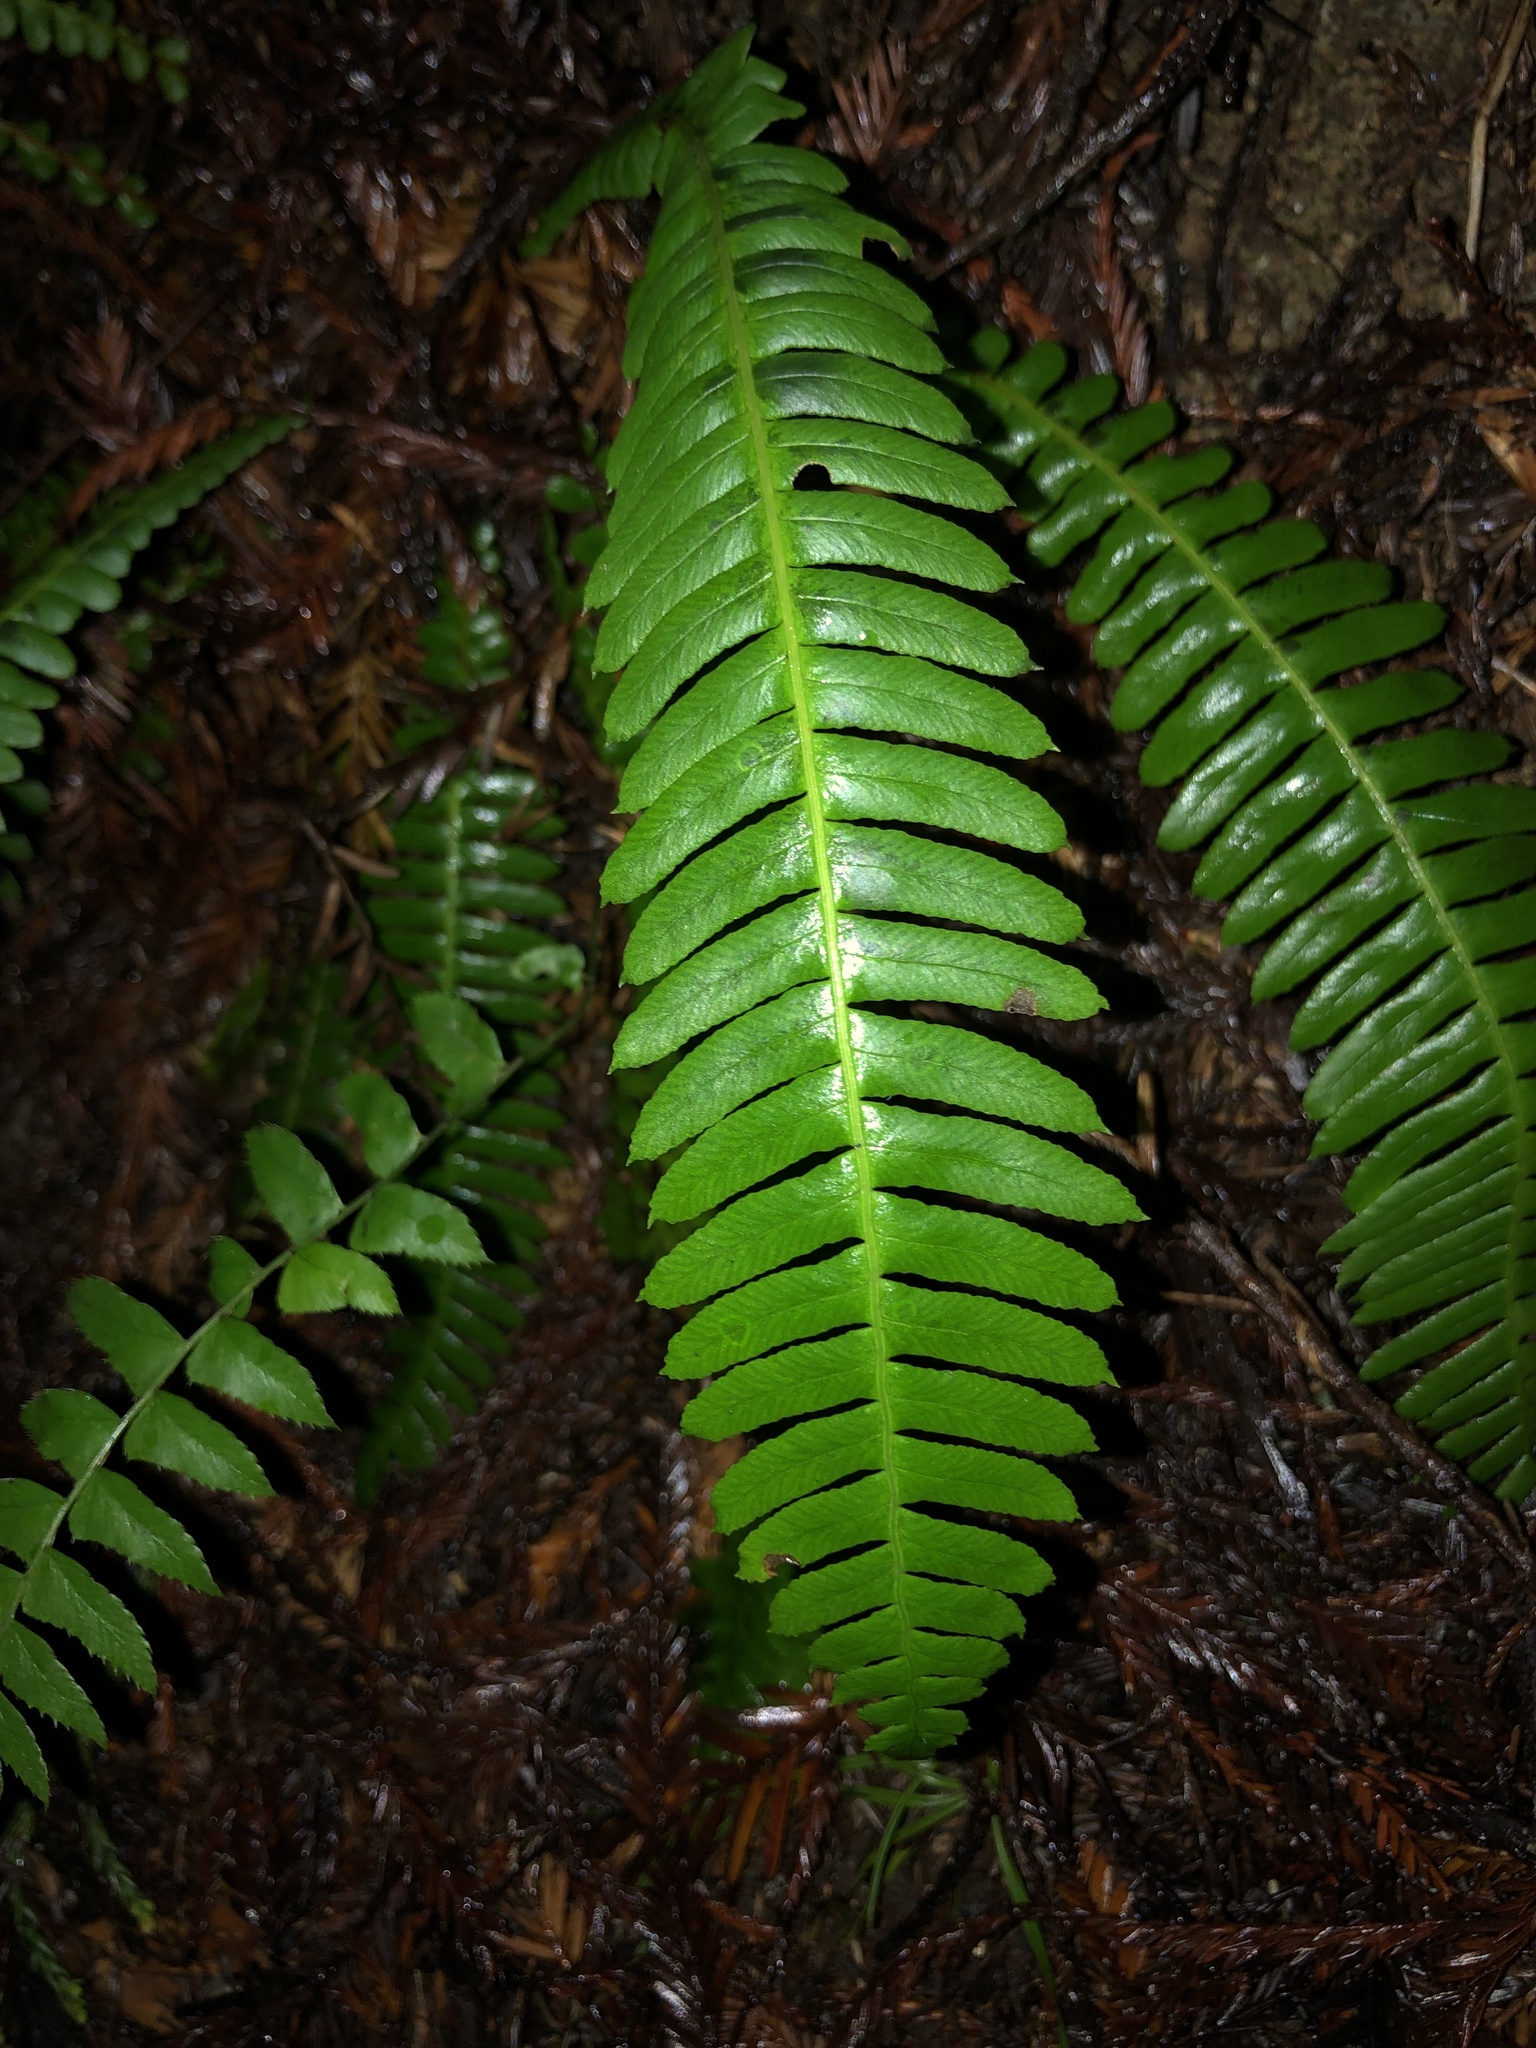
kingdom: Plantae
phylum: Tracheophyta
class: Polypodiopsida
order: Polypodiales
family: Blechnaceae
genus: Struthiopteris
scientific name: Struthiopteris spicant
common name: Deer fern
